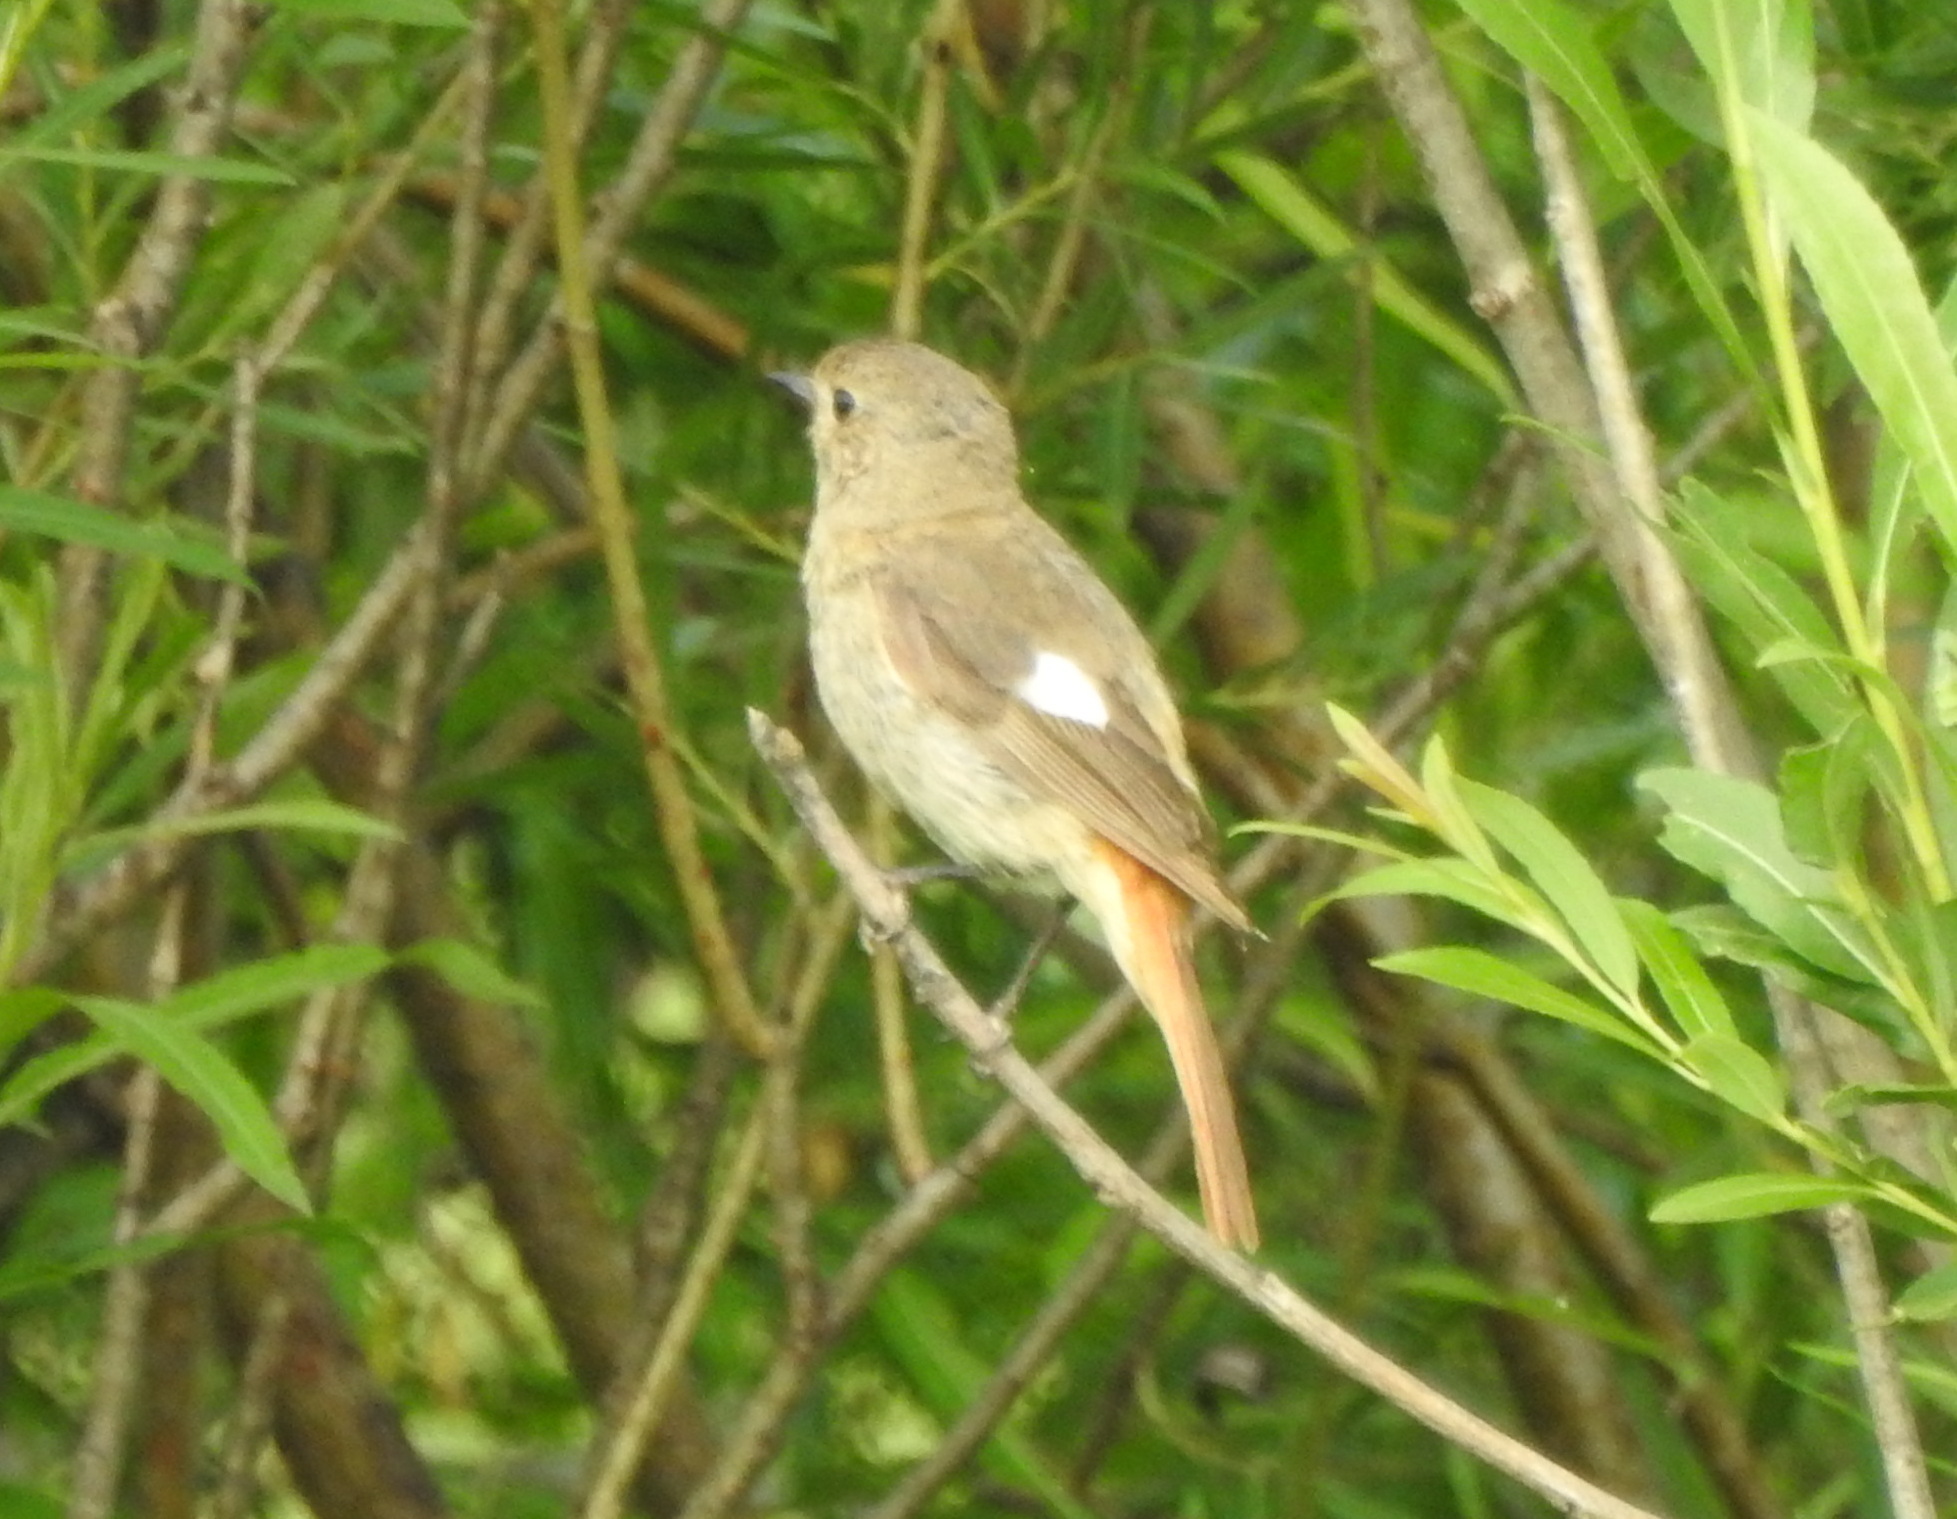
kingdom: Animalia
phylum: Chordata
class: Aves
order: Passeriformes
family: Muscicapidae
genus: Phoenicurus
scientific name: Phoenicurus auroreus
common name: Daurian redstart
